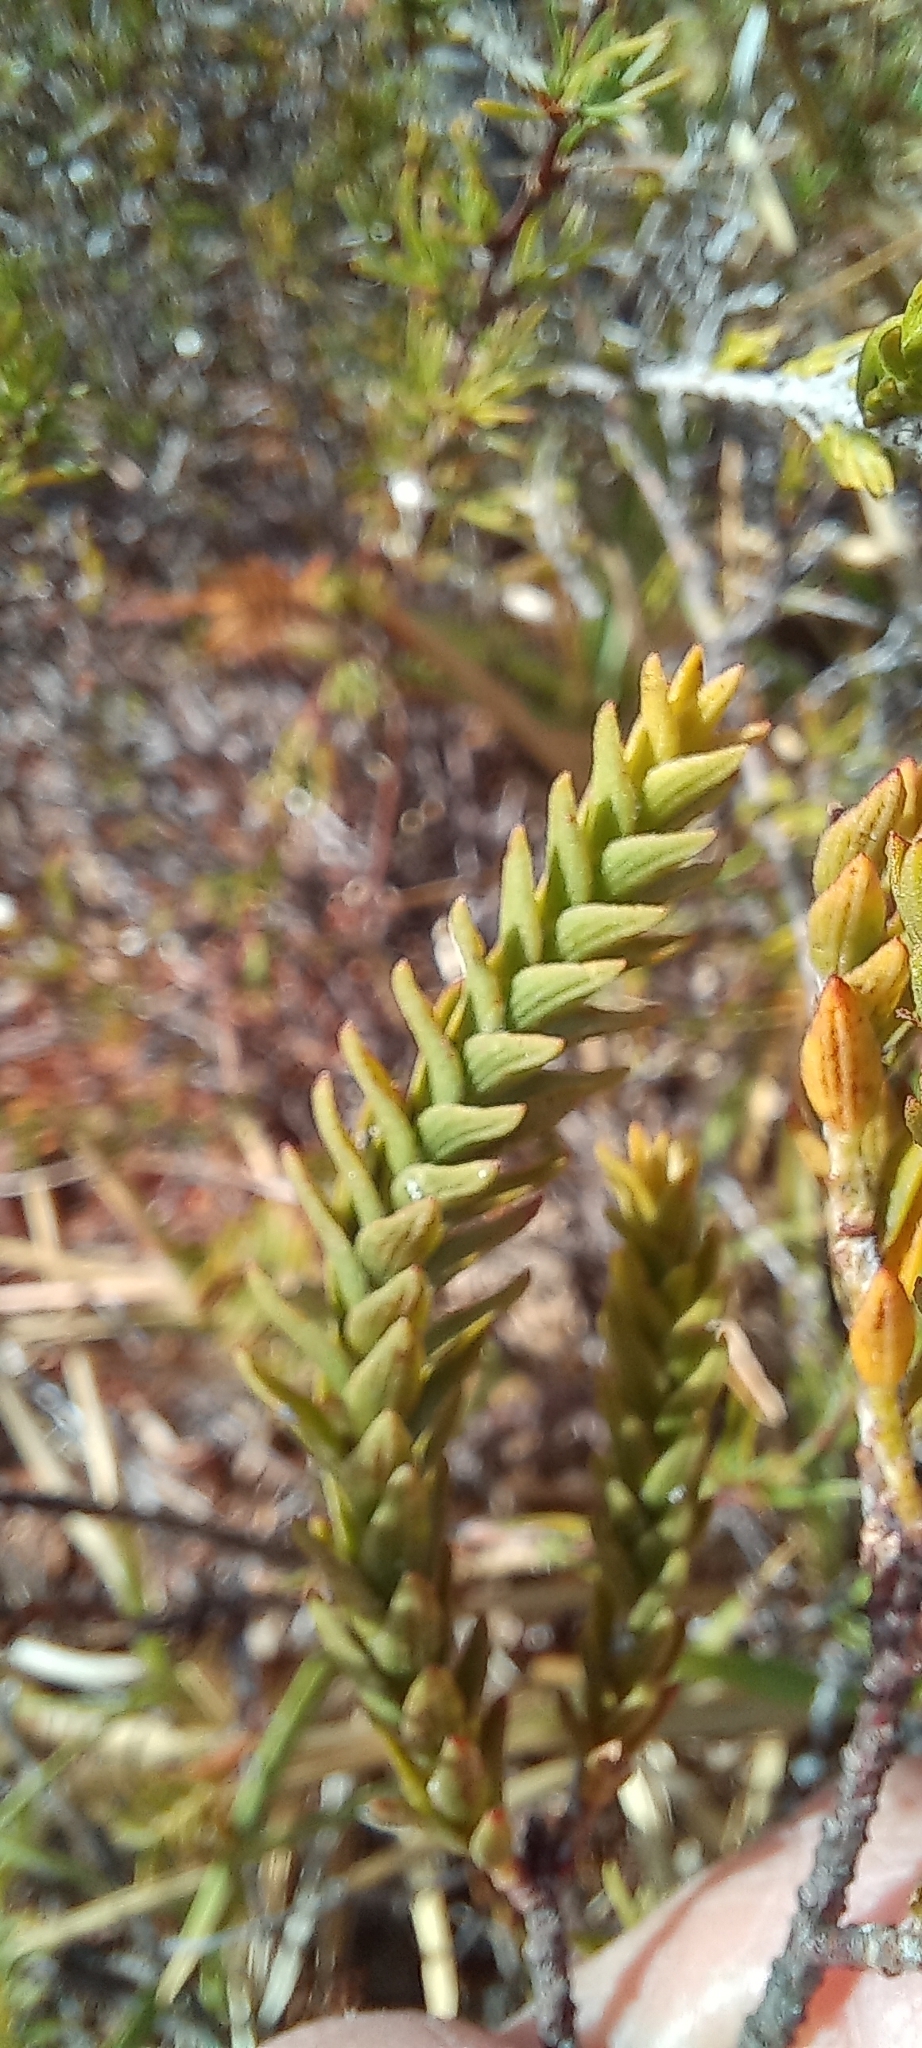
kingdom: Plantae
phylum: Tracheophyta
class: Magnoliopsida
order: Malvales
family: Thymelaeaceae
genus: Struthiola
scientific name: Struthiola striata
